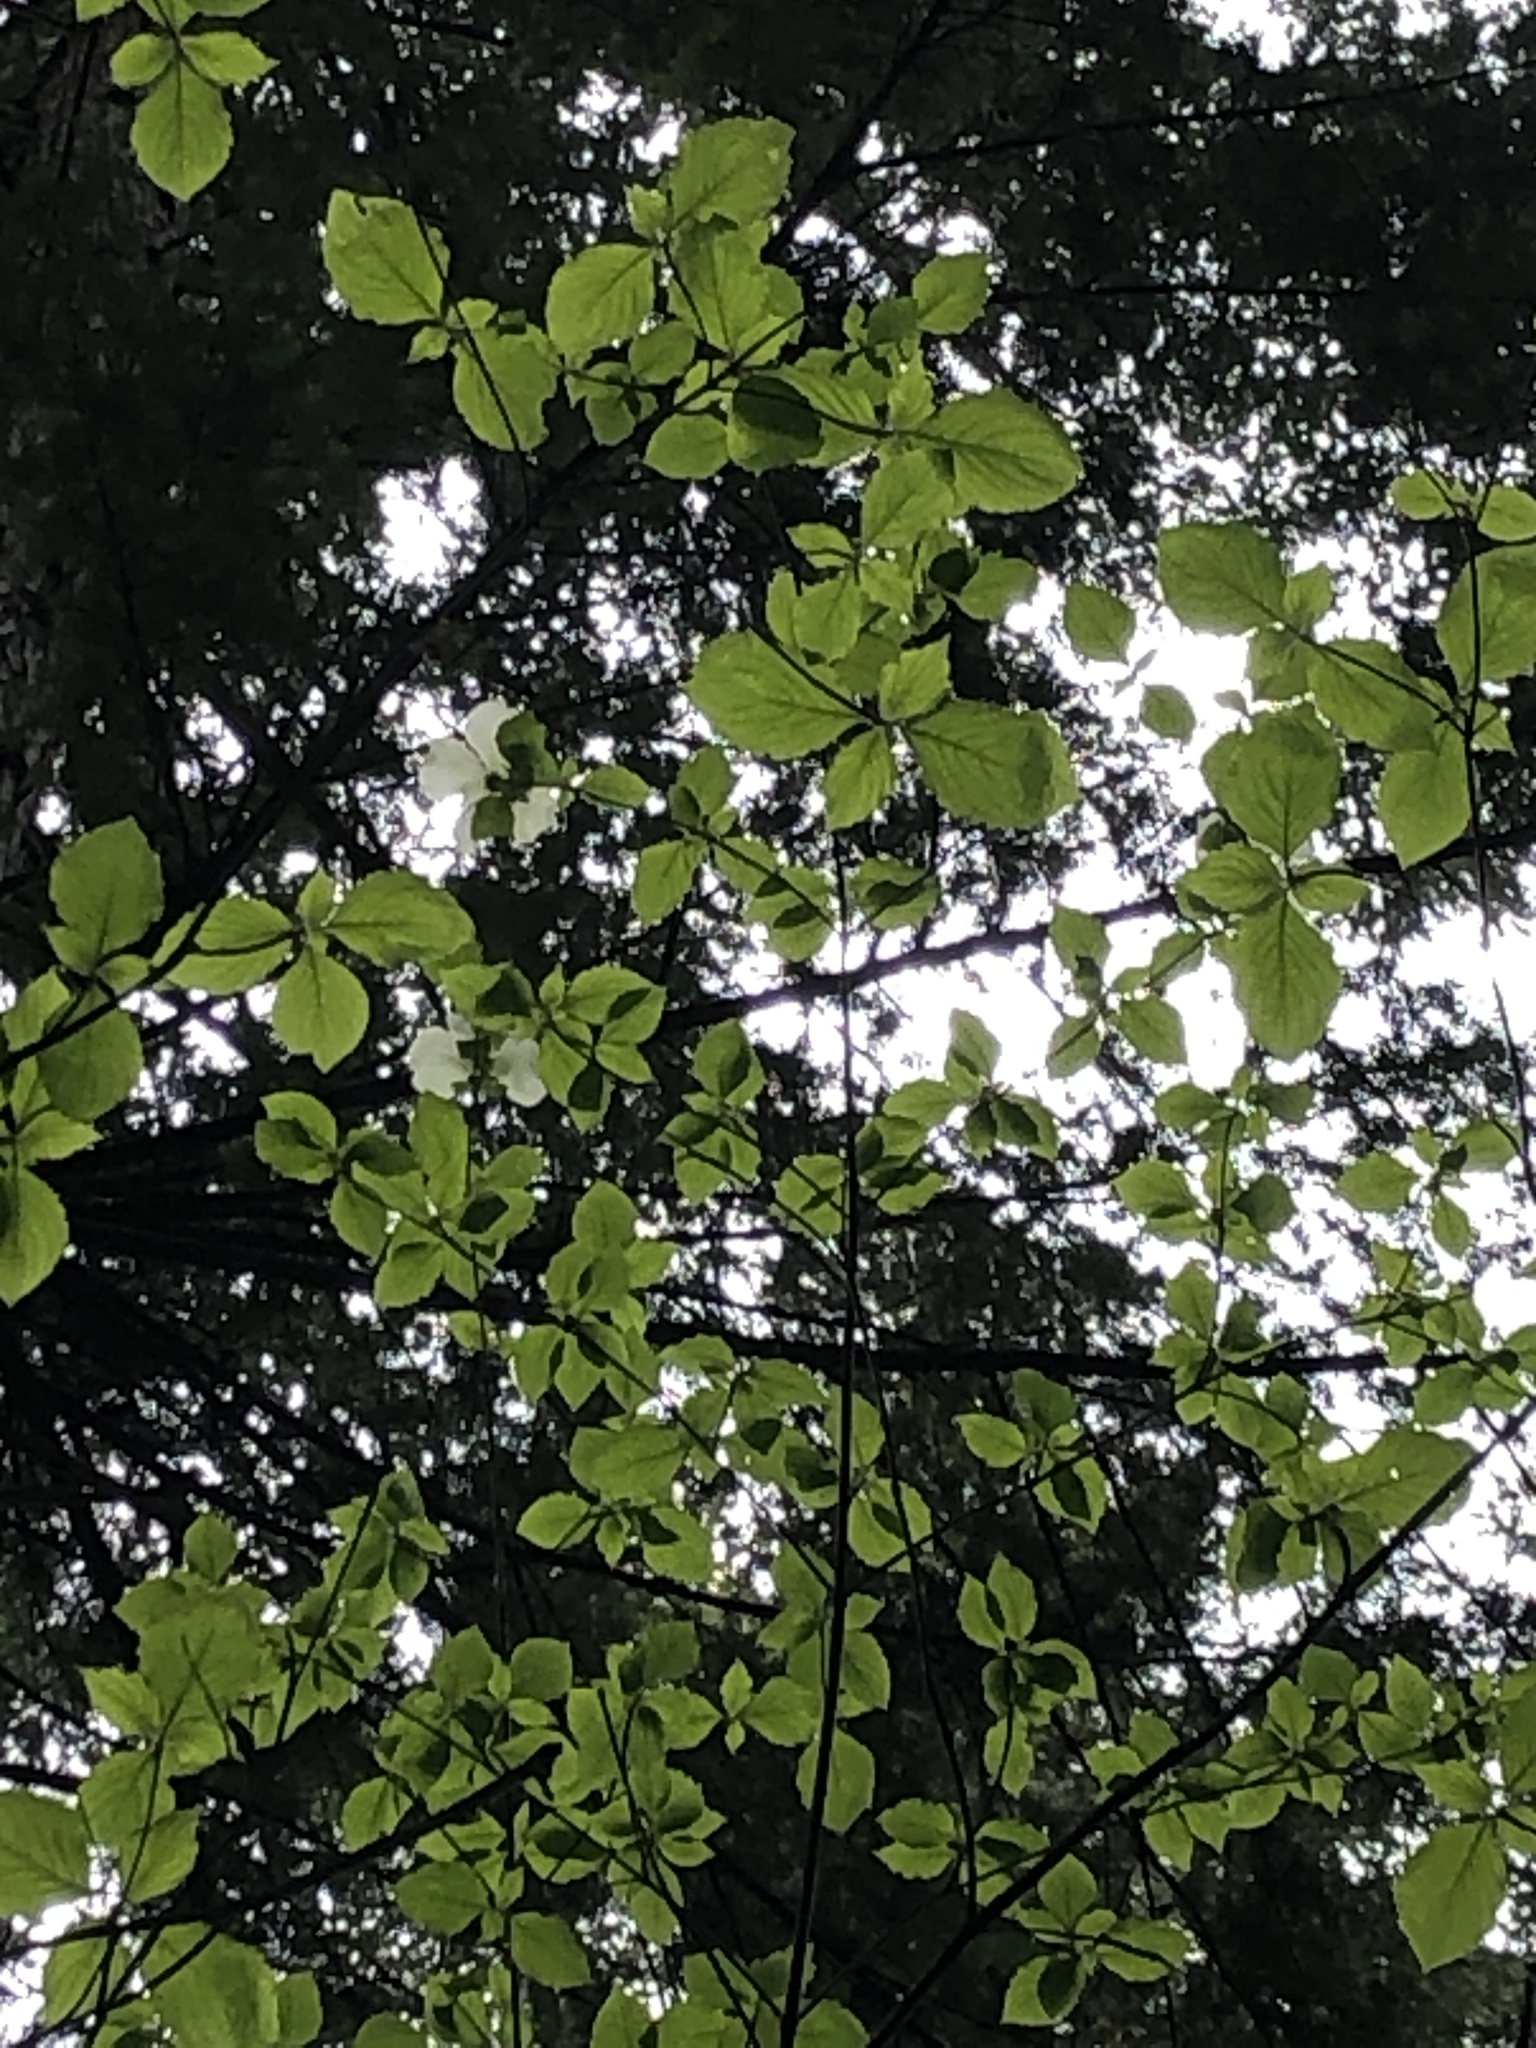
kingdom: Plantae
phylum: Tracheophyta
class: Magnoliopsida
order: Cornales
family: Cornaceae
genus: Cornus
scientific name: Cornus nuttallii
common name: Pacific dogwood
